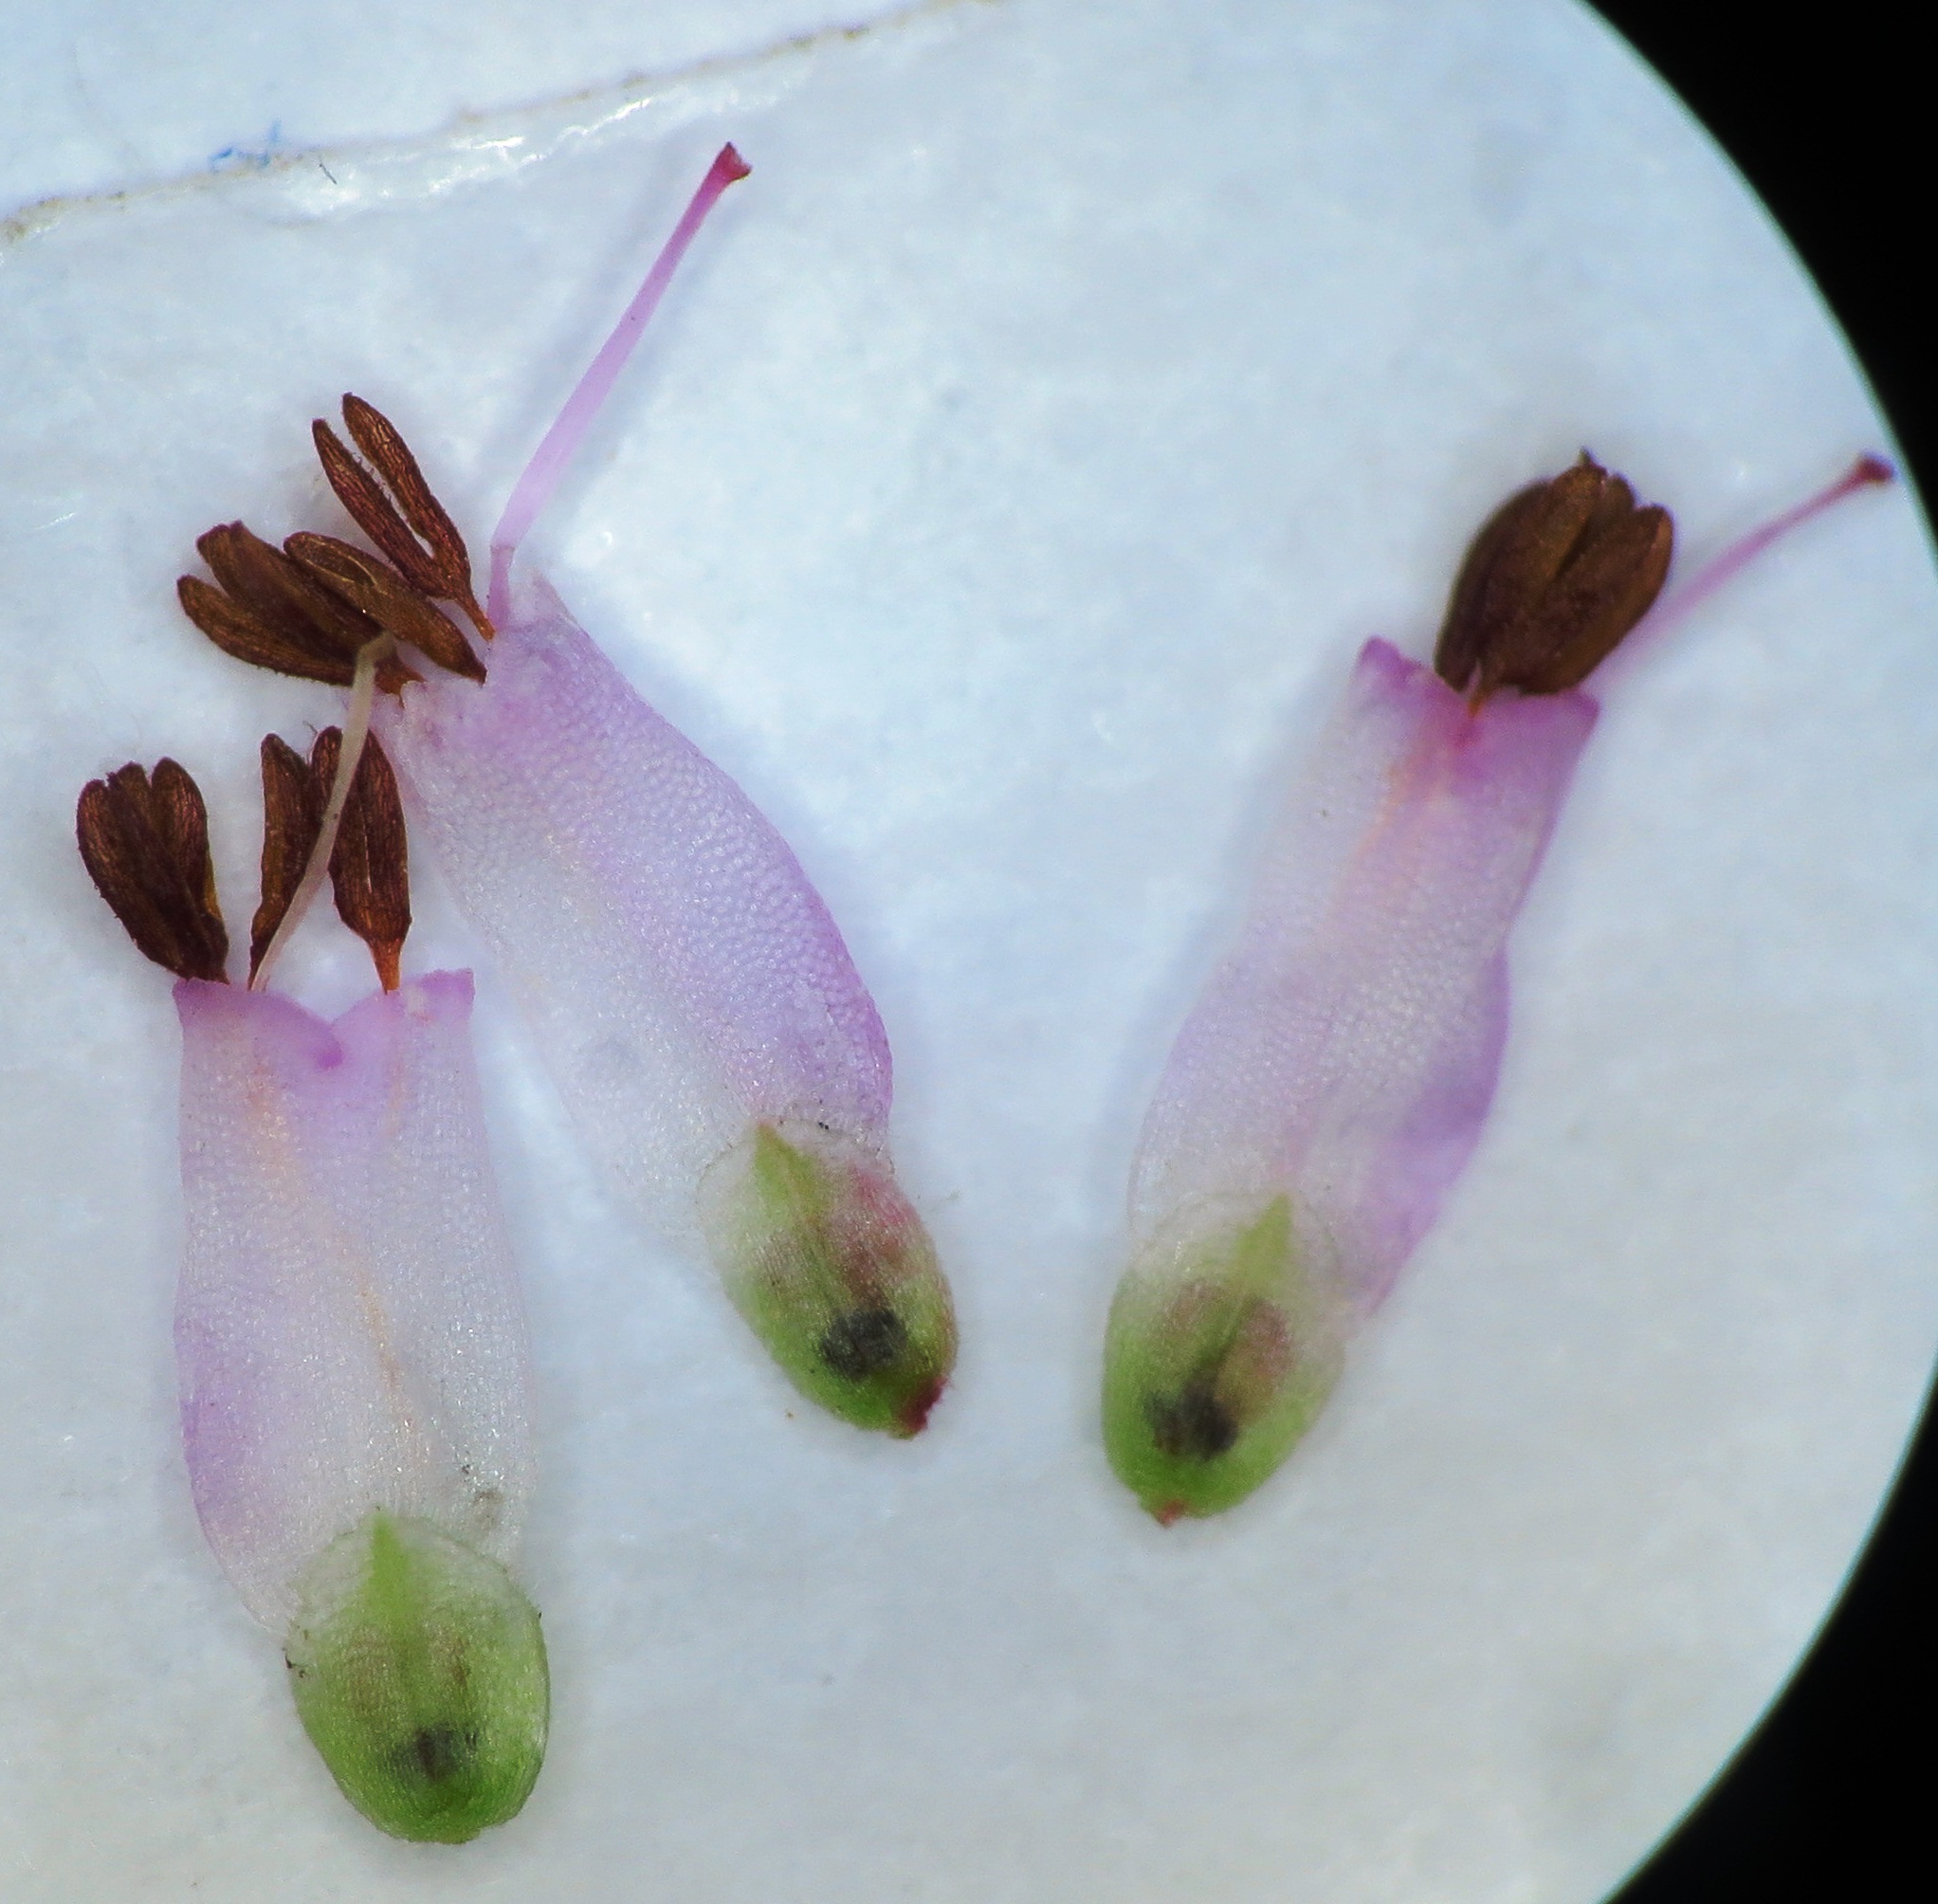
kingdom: Plantae
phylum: Tracheophyta
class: Magnoliopsida
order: Ericales
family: Ericaceae
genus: Erica
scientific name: Erica ecklonii
